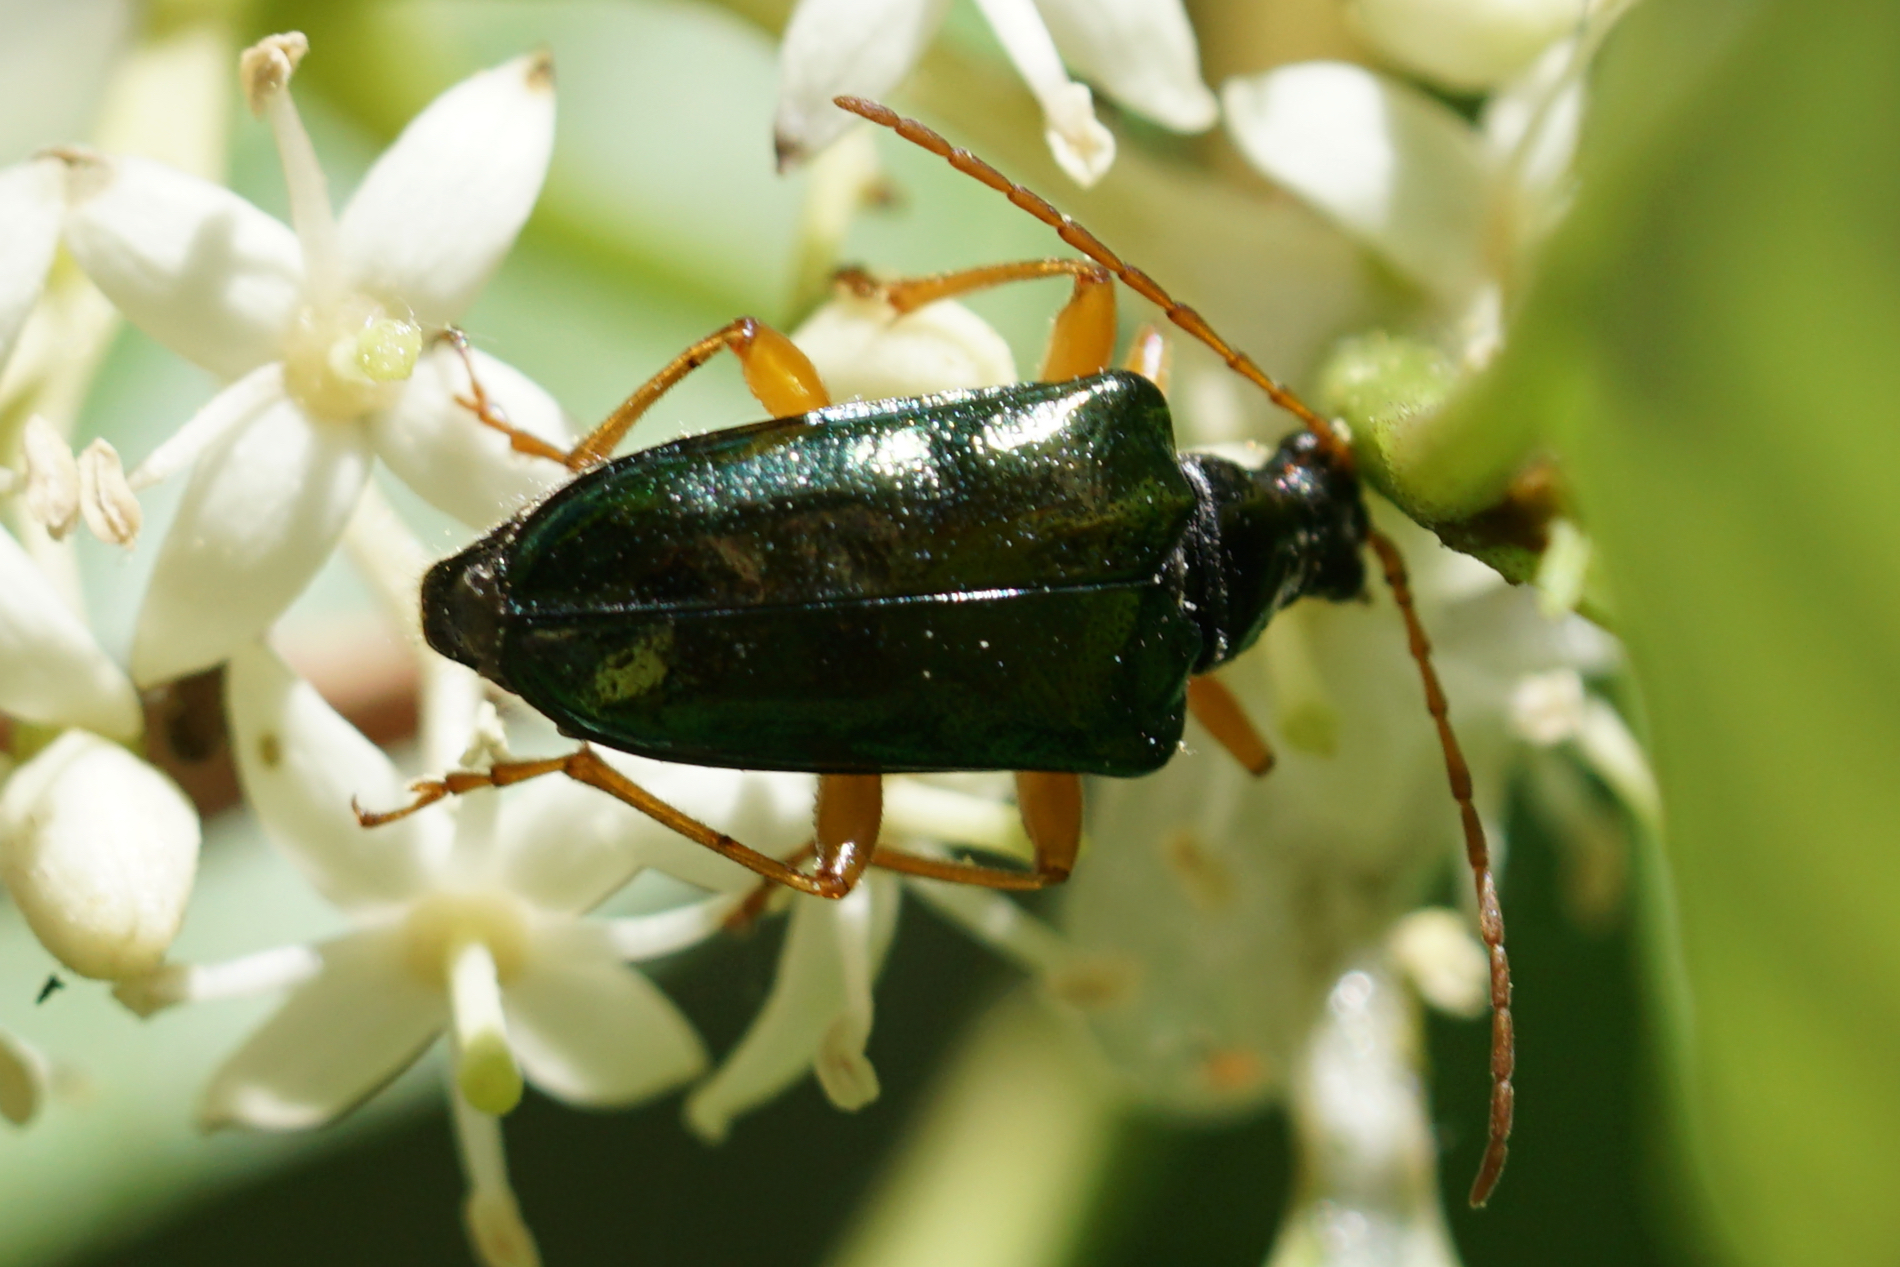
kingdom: Animalia
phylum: Arthropoda
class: Insecta
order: Coleoptera
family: Cerambycidae
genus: Gaurotes
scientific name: Gaurotes cyanipennis
